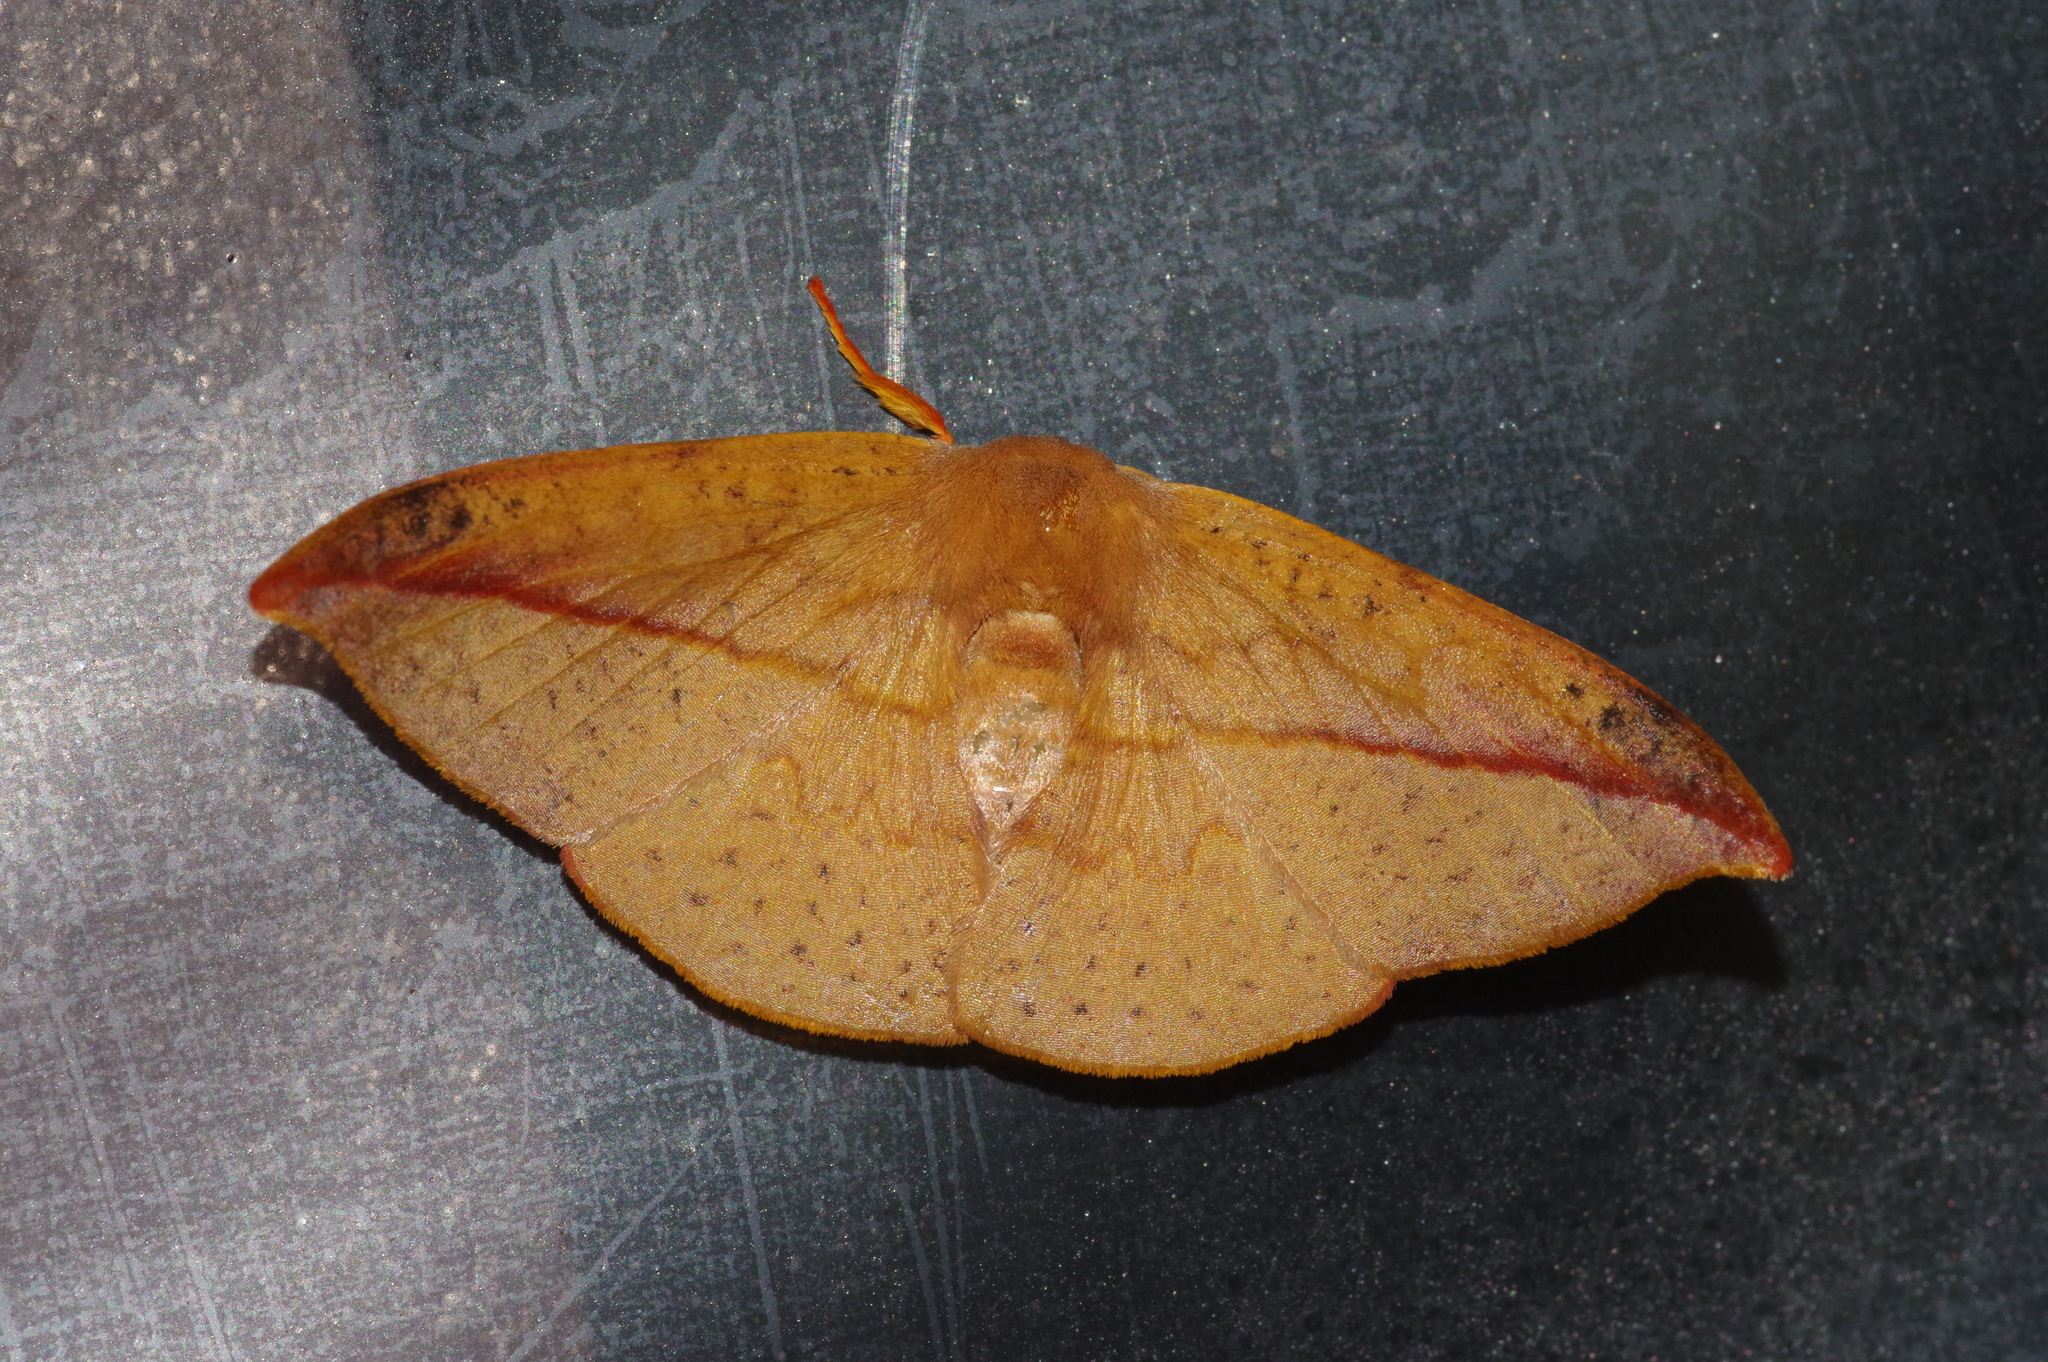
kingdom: Animalia
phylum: Arthropoda
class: Insecta
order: Lepidoptera
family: Drepanidae
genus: Oreta
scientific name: Oreta insignis
